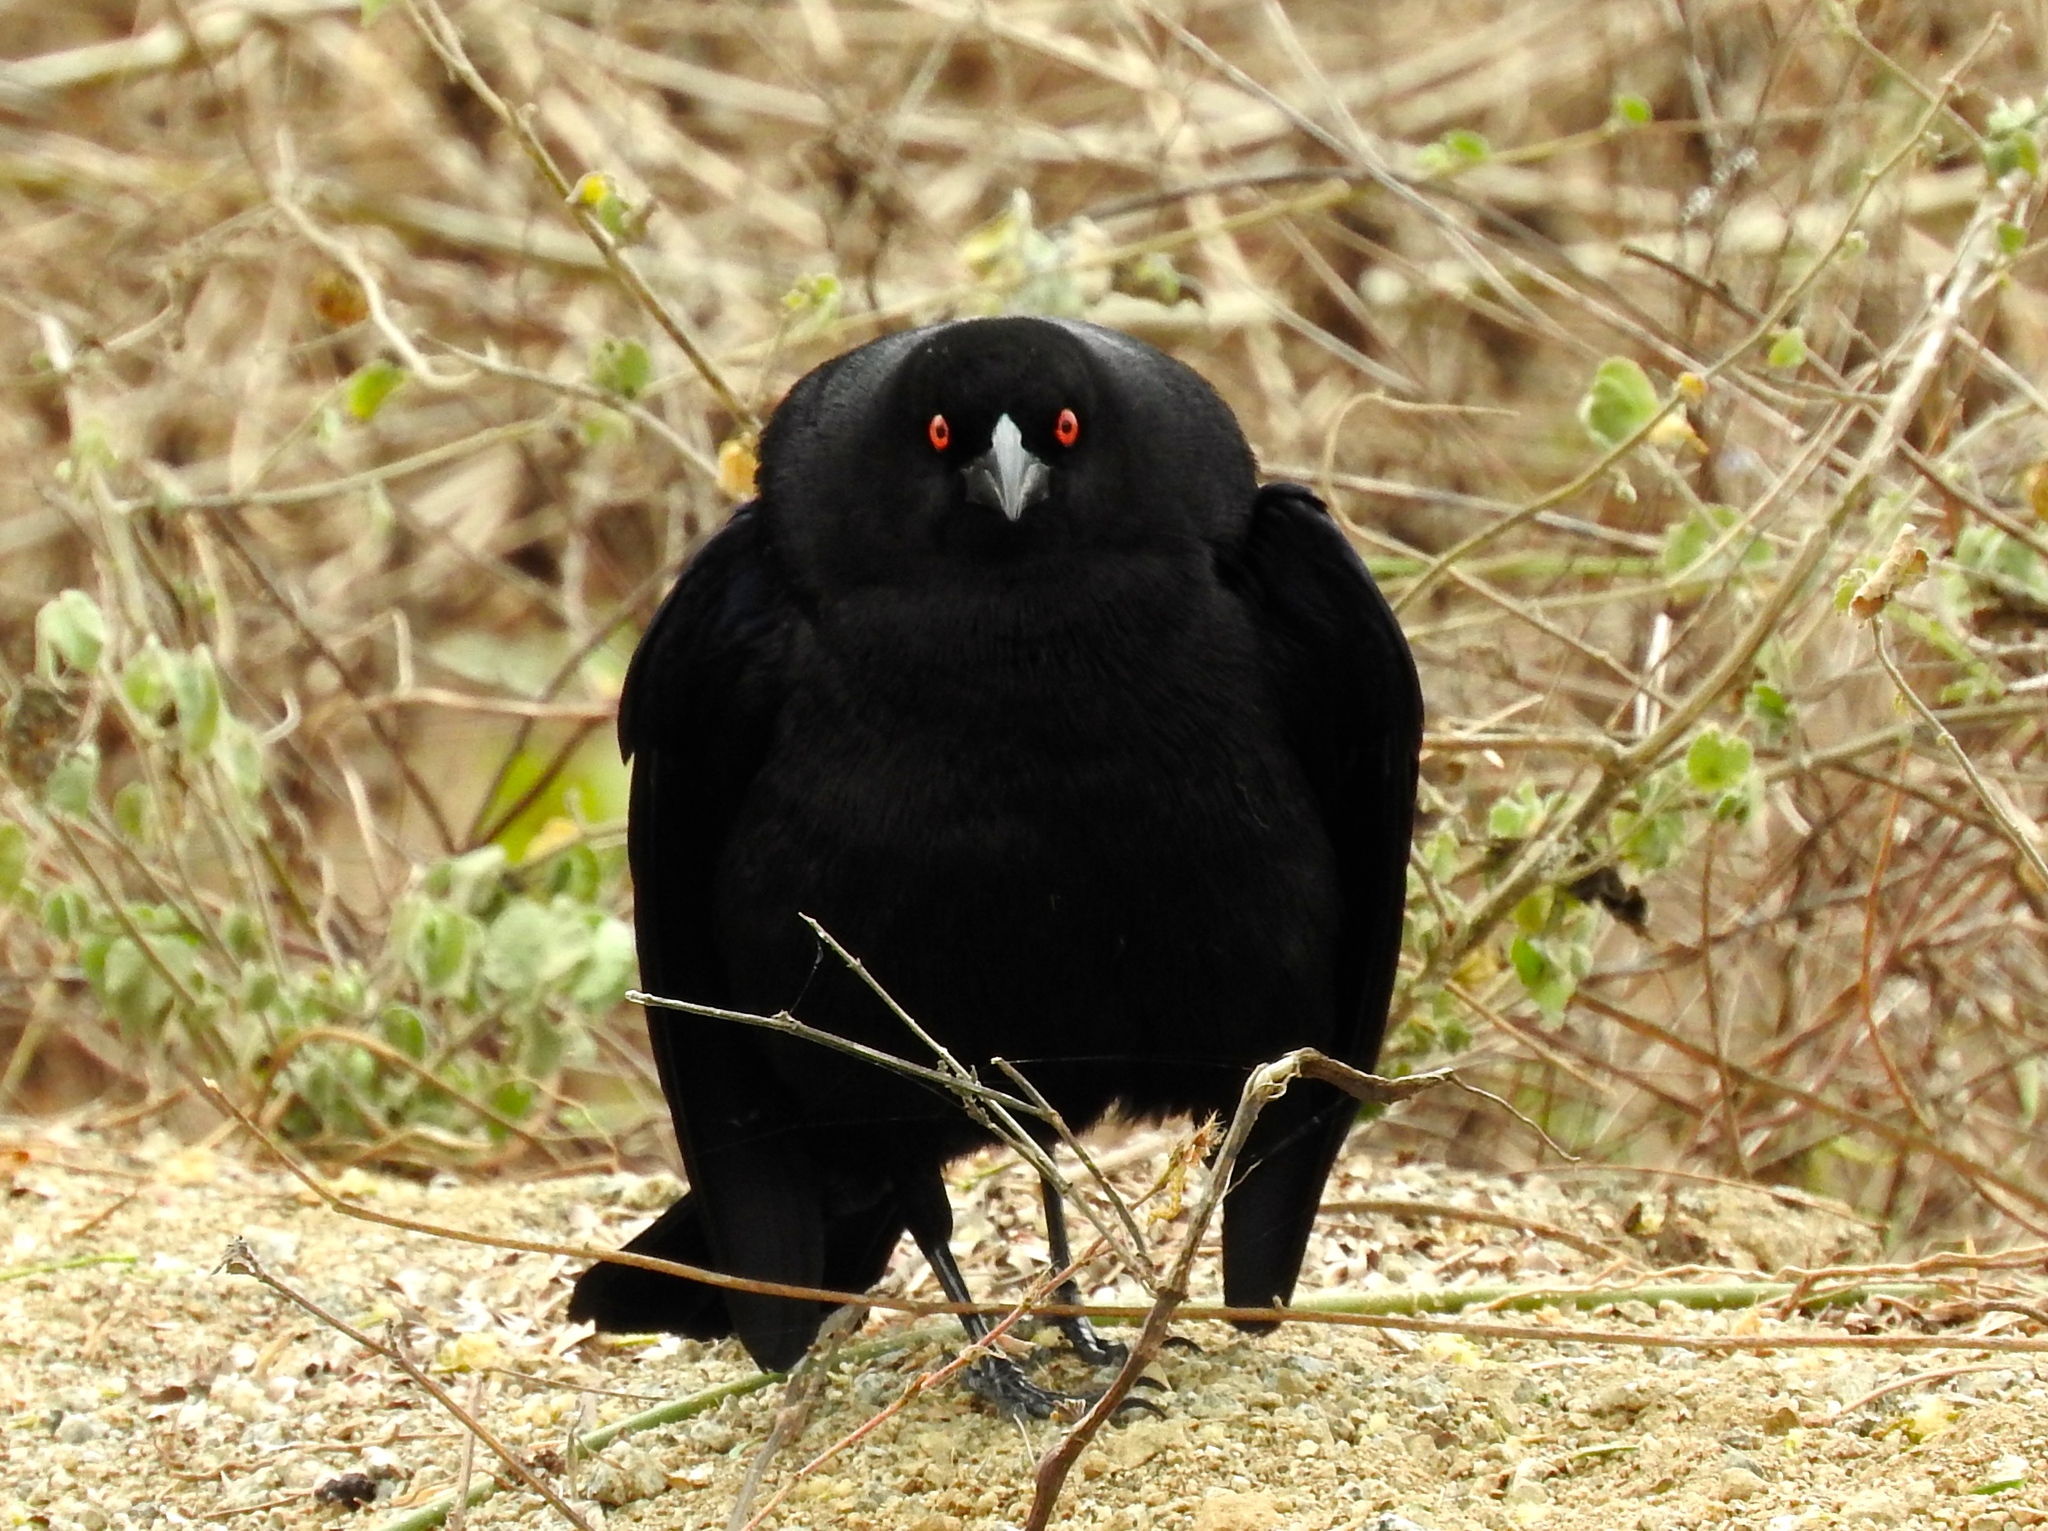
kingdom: Animalia
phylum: Chordata
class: Aves
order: Passeriformes
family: Icteridae
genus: Molothrus
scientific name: Molothrus aeneus
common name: Bronzed cowbird
